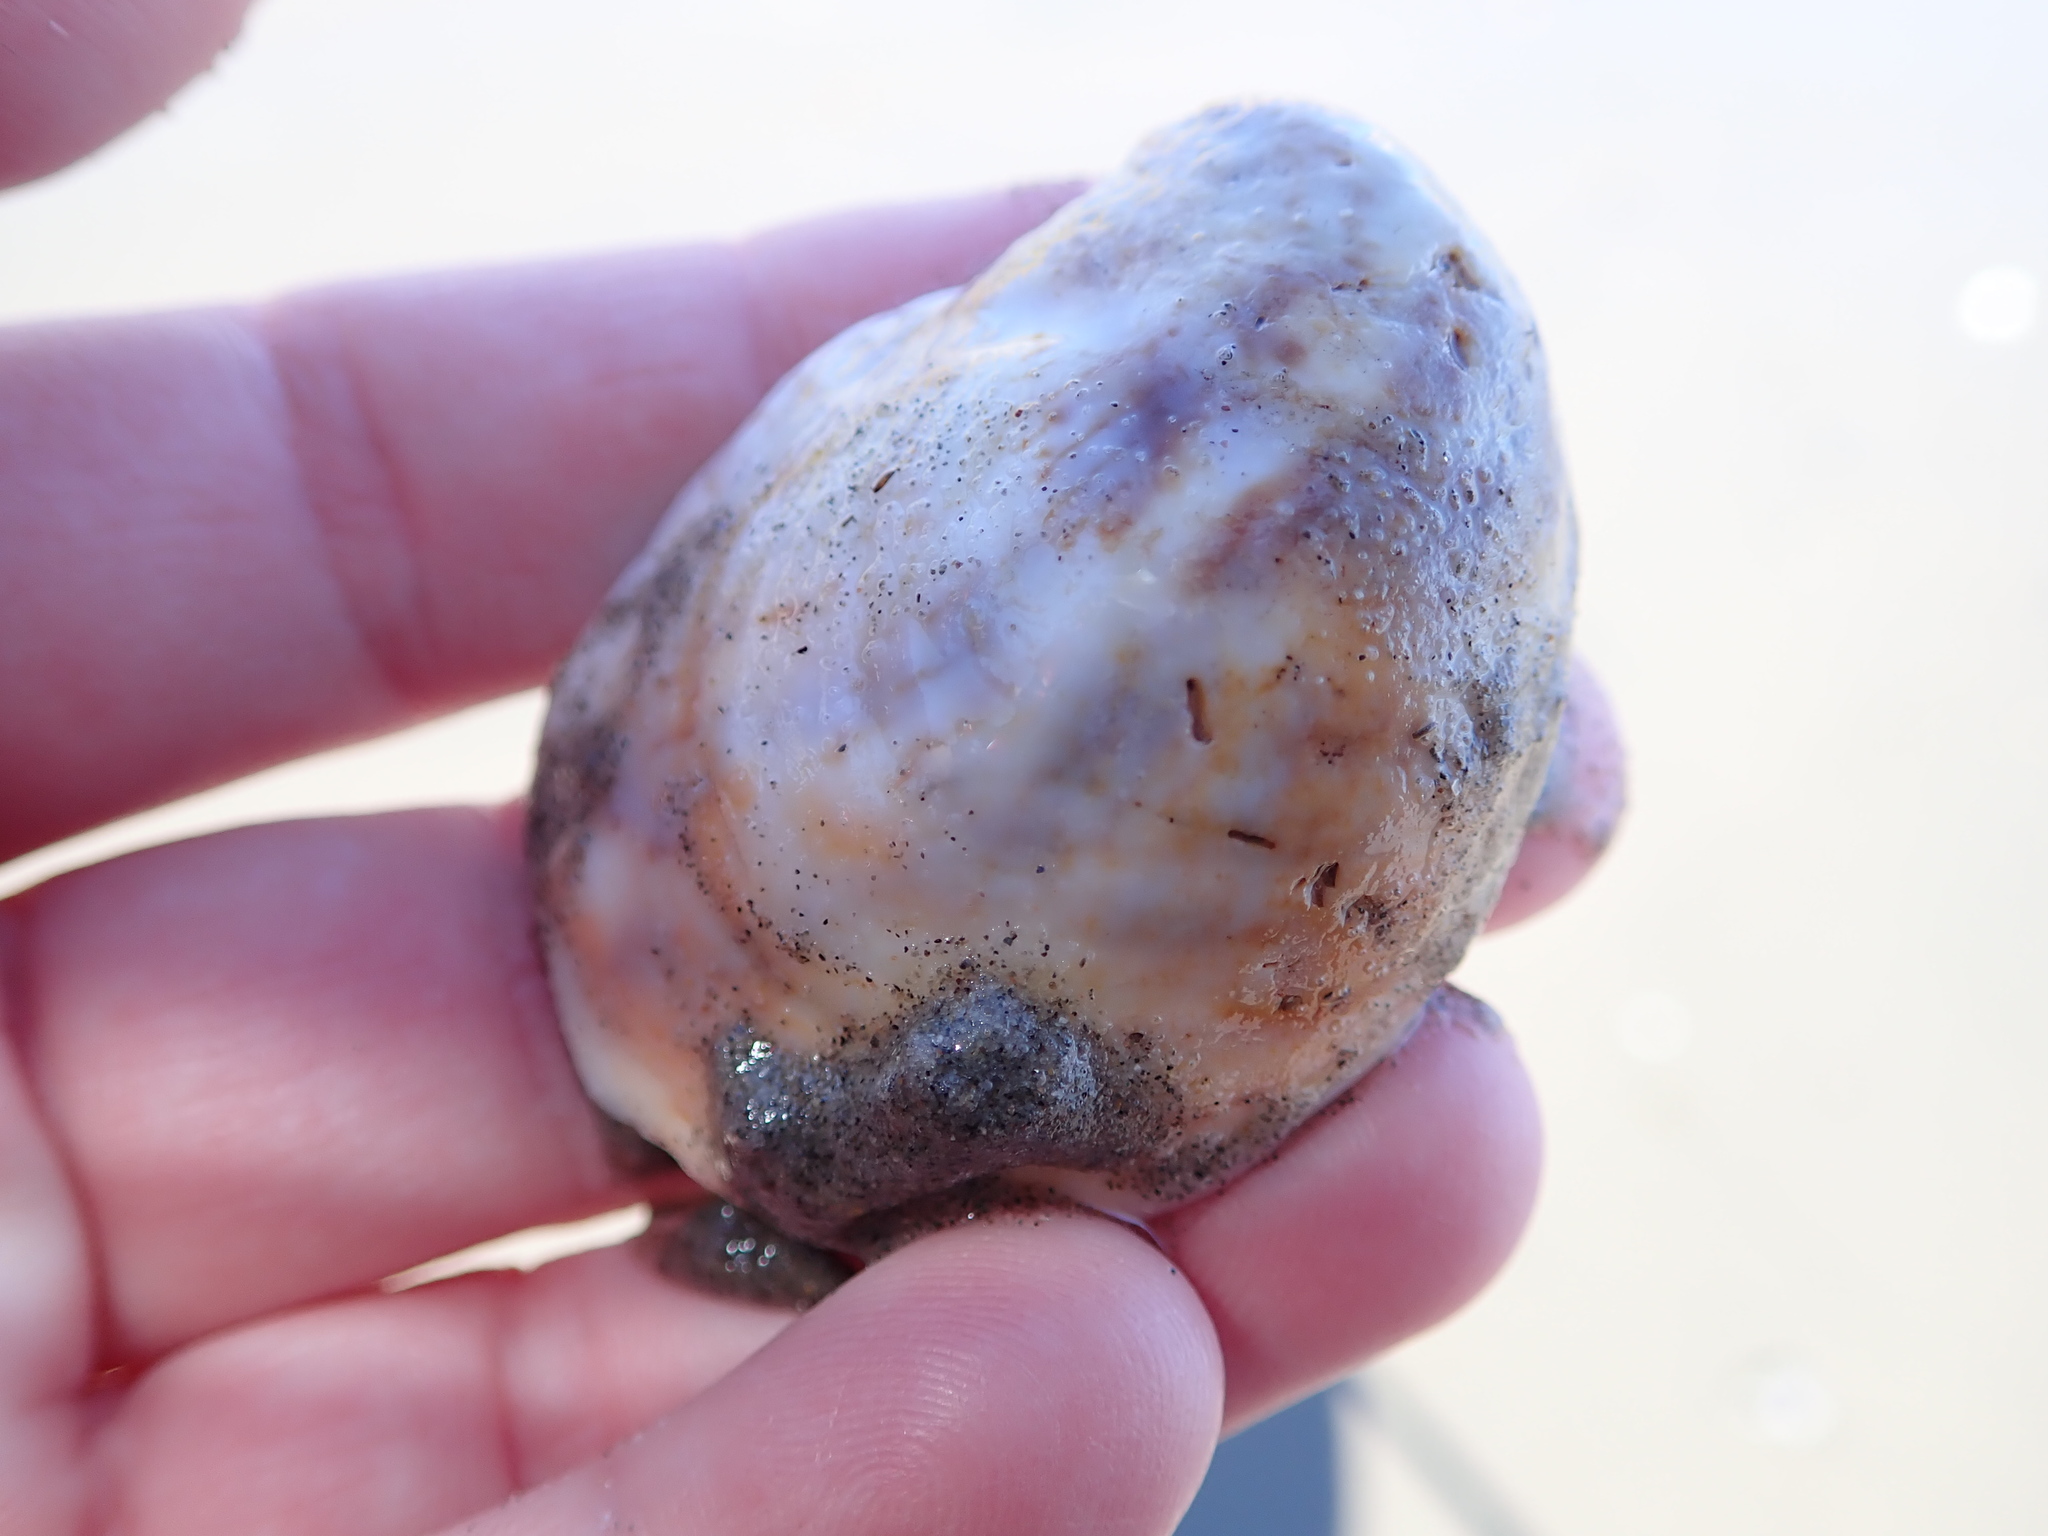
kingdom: Animalia
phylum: Mollusca
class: Gastropoda
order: Littorinimorpha
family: Calyptraeidae
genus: Crepidula
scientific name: Crepidula fornicata
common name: Slipper limpet
